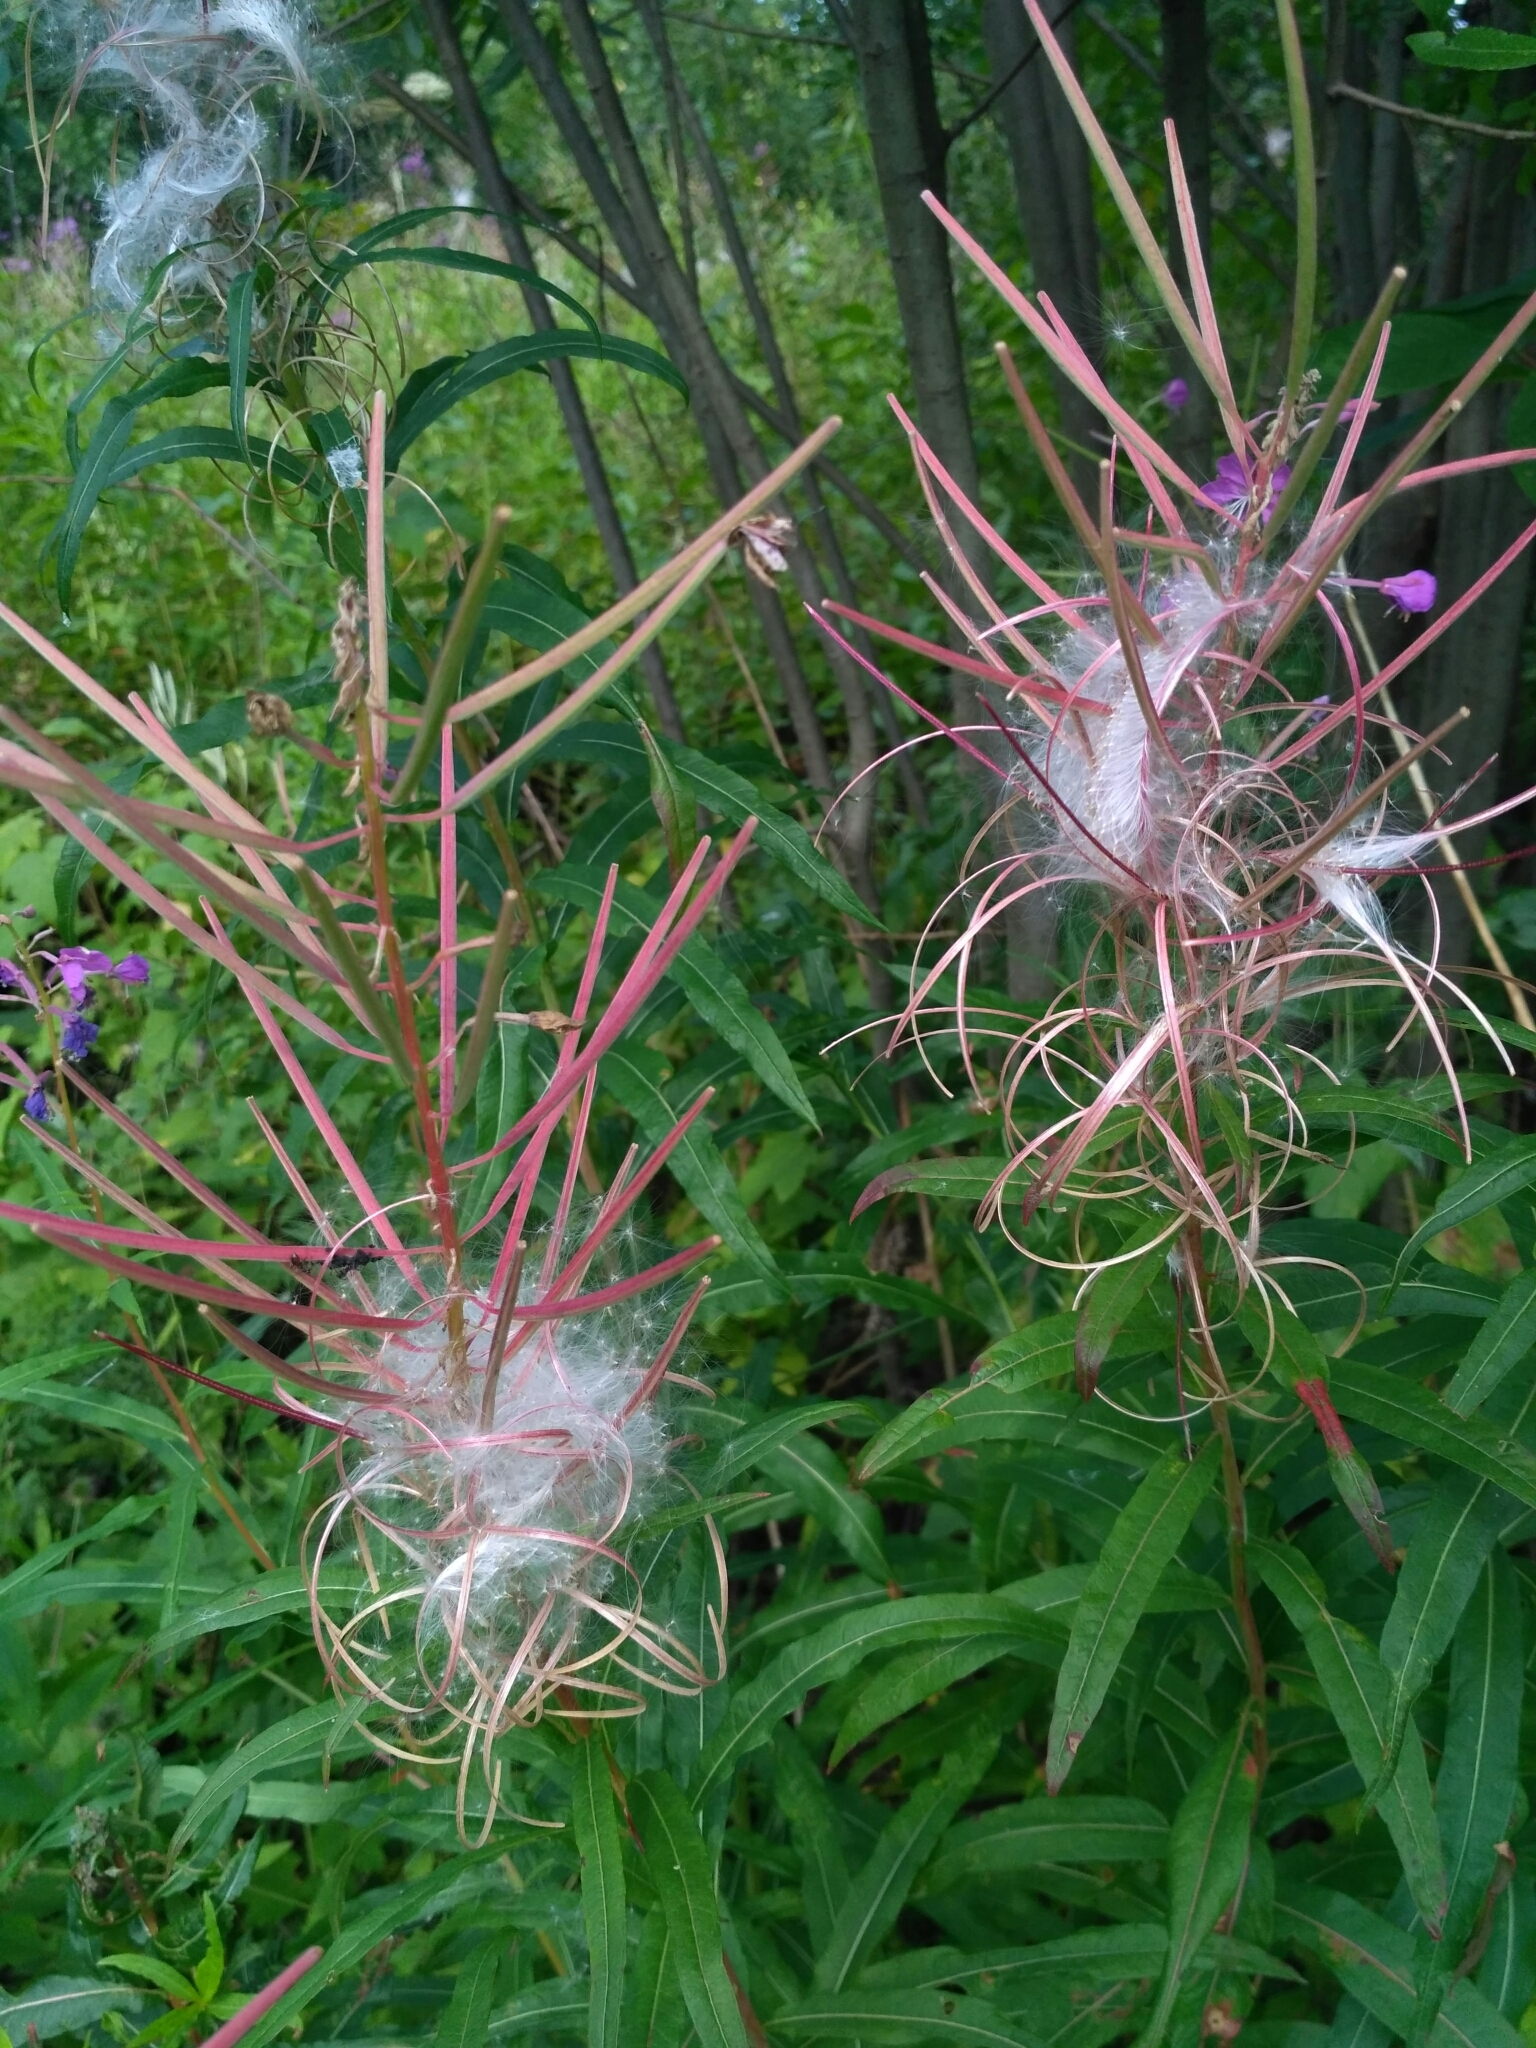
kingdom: Plantae
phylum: Tracheophyta
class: Magnoliopsida
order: Myrtales
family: Onagraceae
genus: Chamaenerion
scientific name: Chamaenerion angustifolium
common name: Fireweed
